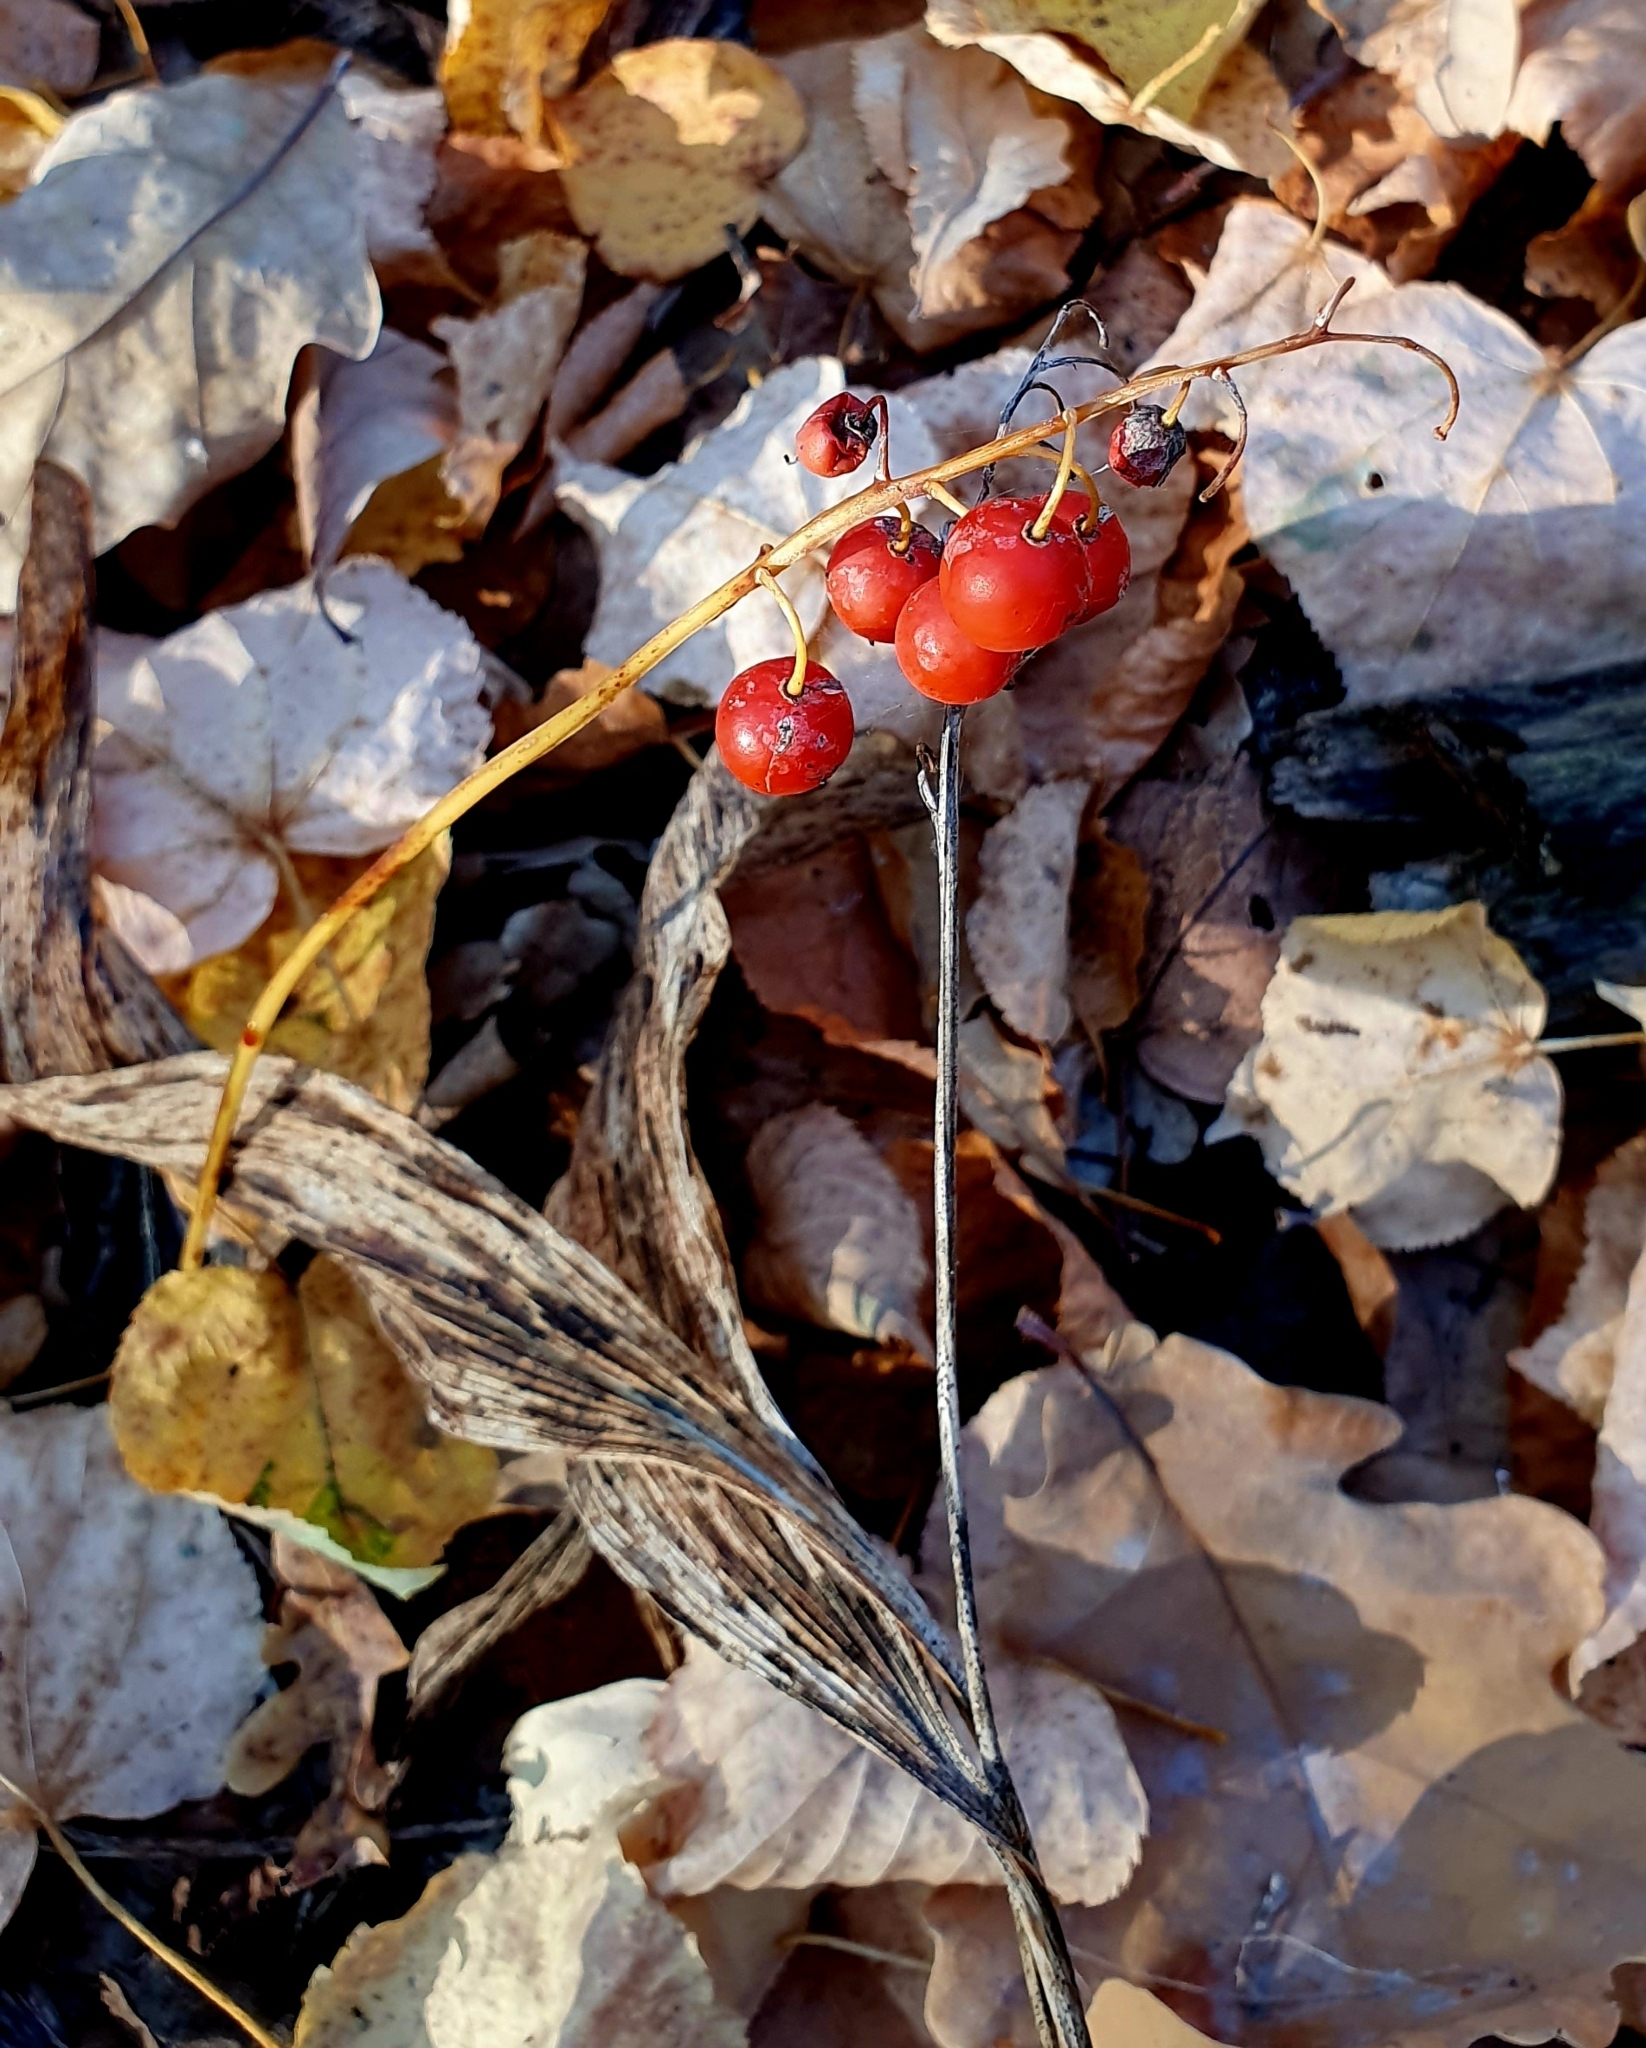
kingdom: Plantae
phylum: Tracheophyta
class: Liliopsida
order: Asparagales
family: Asparagaceae
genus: Convallaria
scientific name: Convallaria majalis
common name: Lily-of-the-valley
